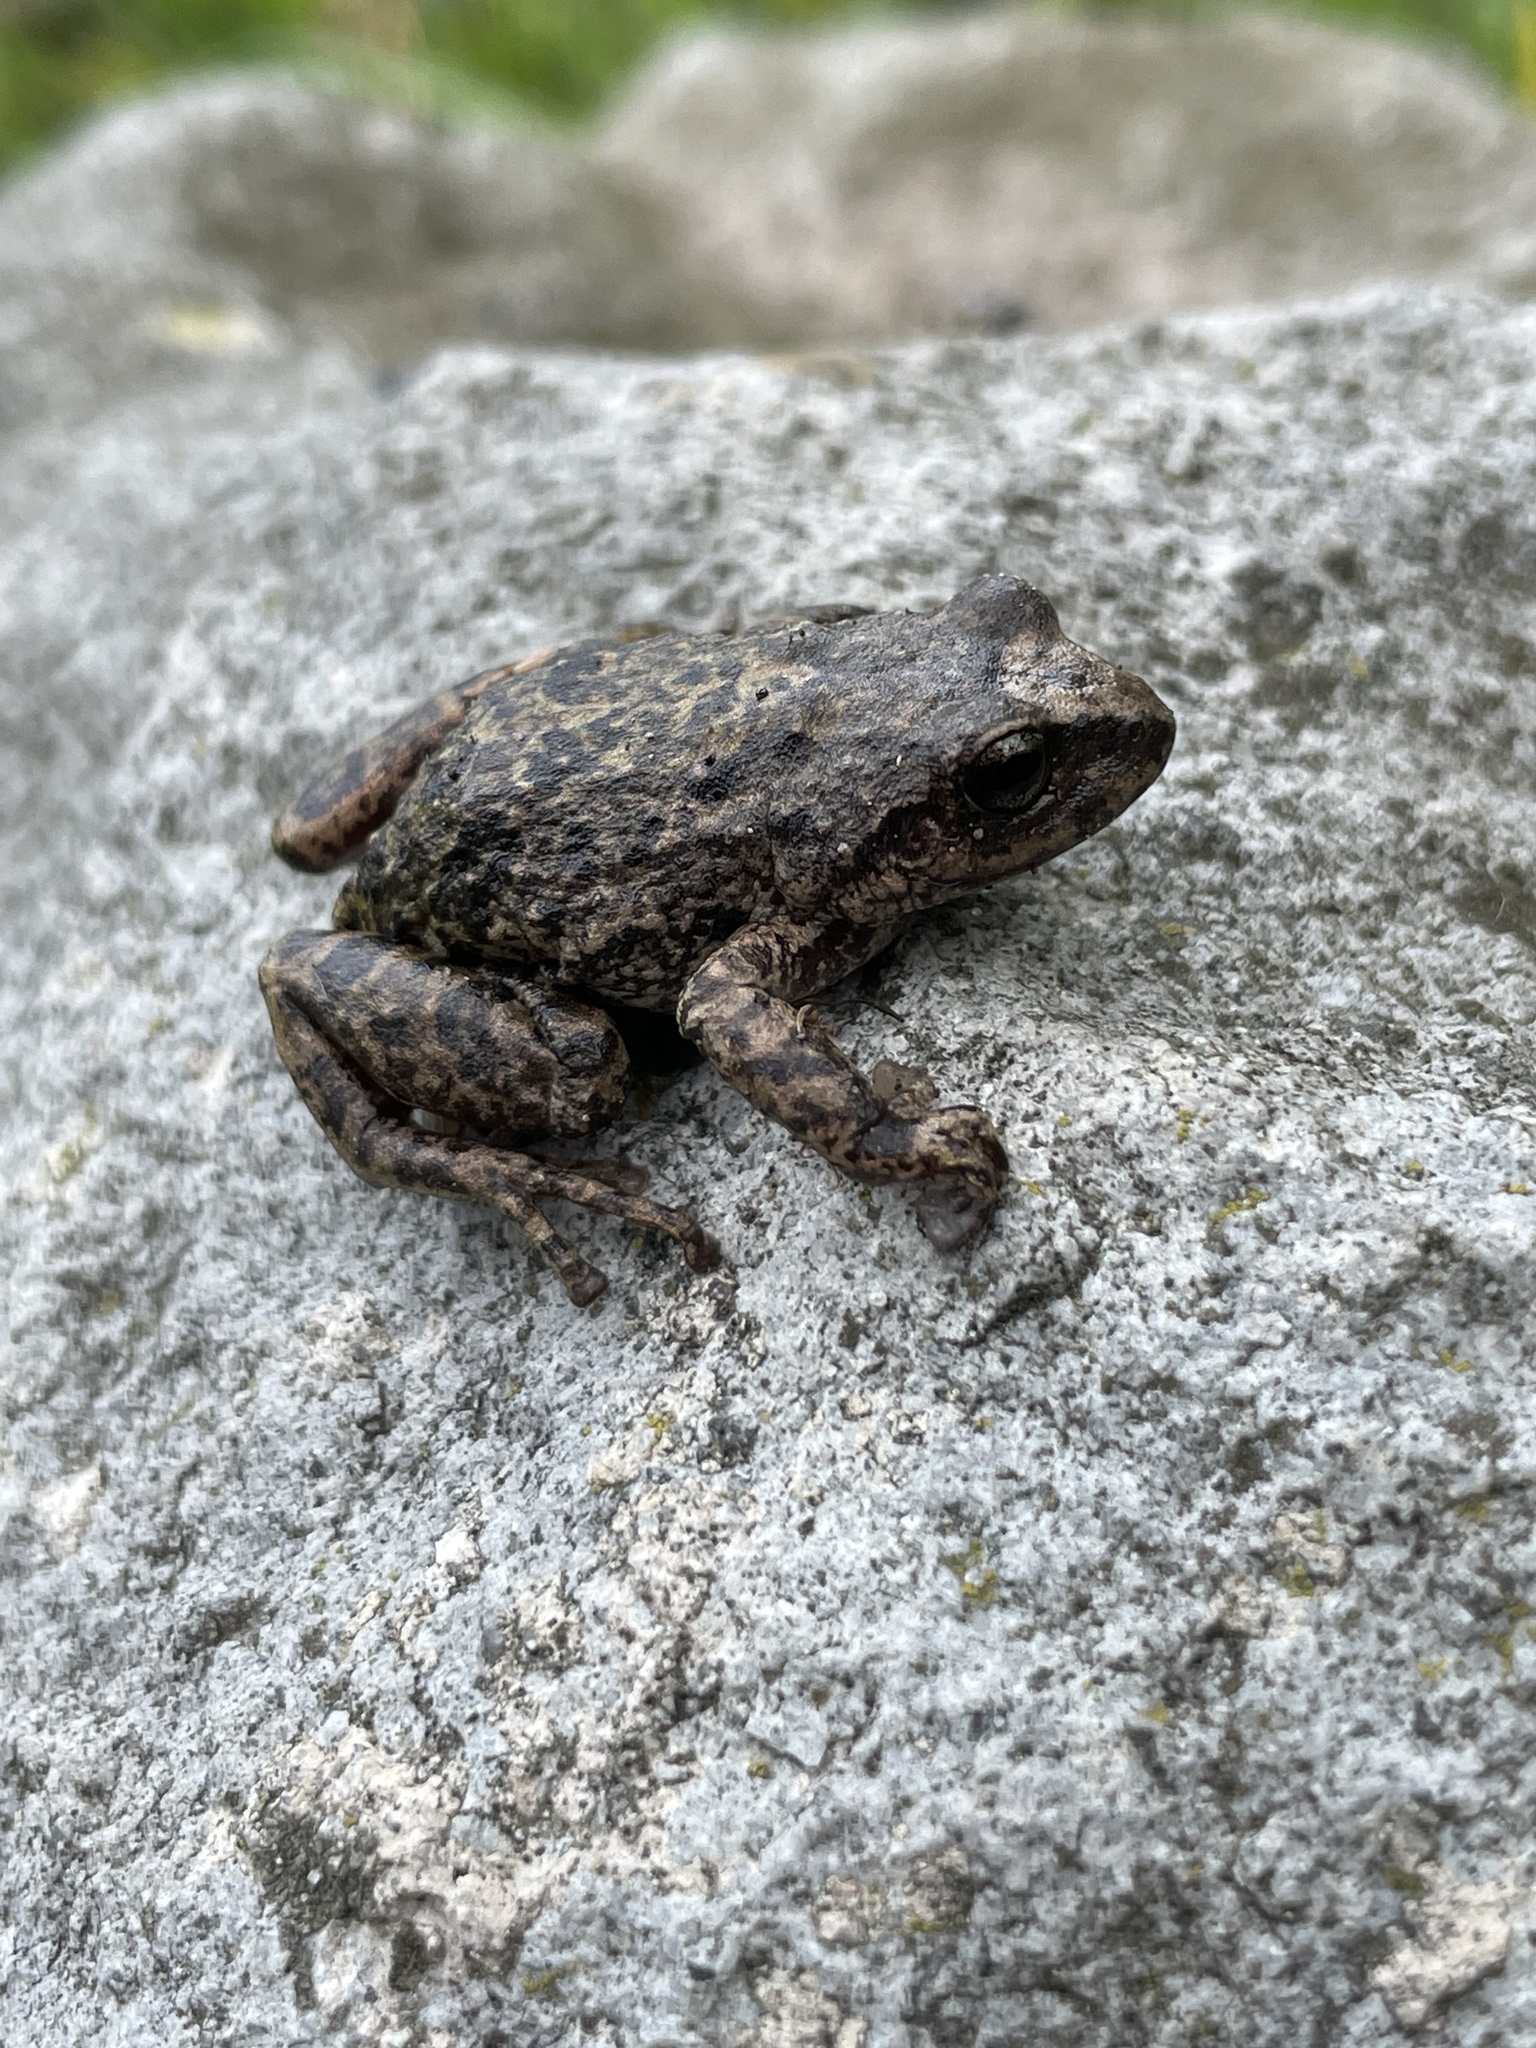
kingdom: Animalia
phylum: Chordata
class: Amphibia
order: Anura
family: Craugastoridae
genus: Pristimantis
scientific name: Pristimantis unistrigatus
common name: Striped robber frog
